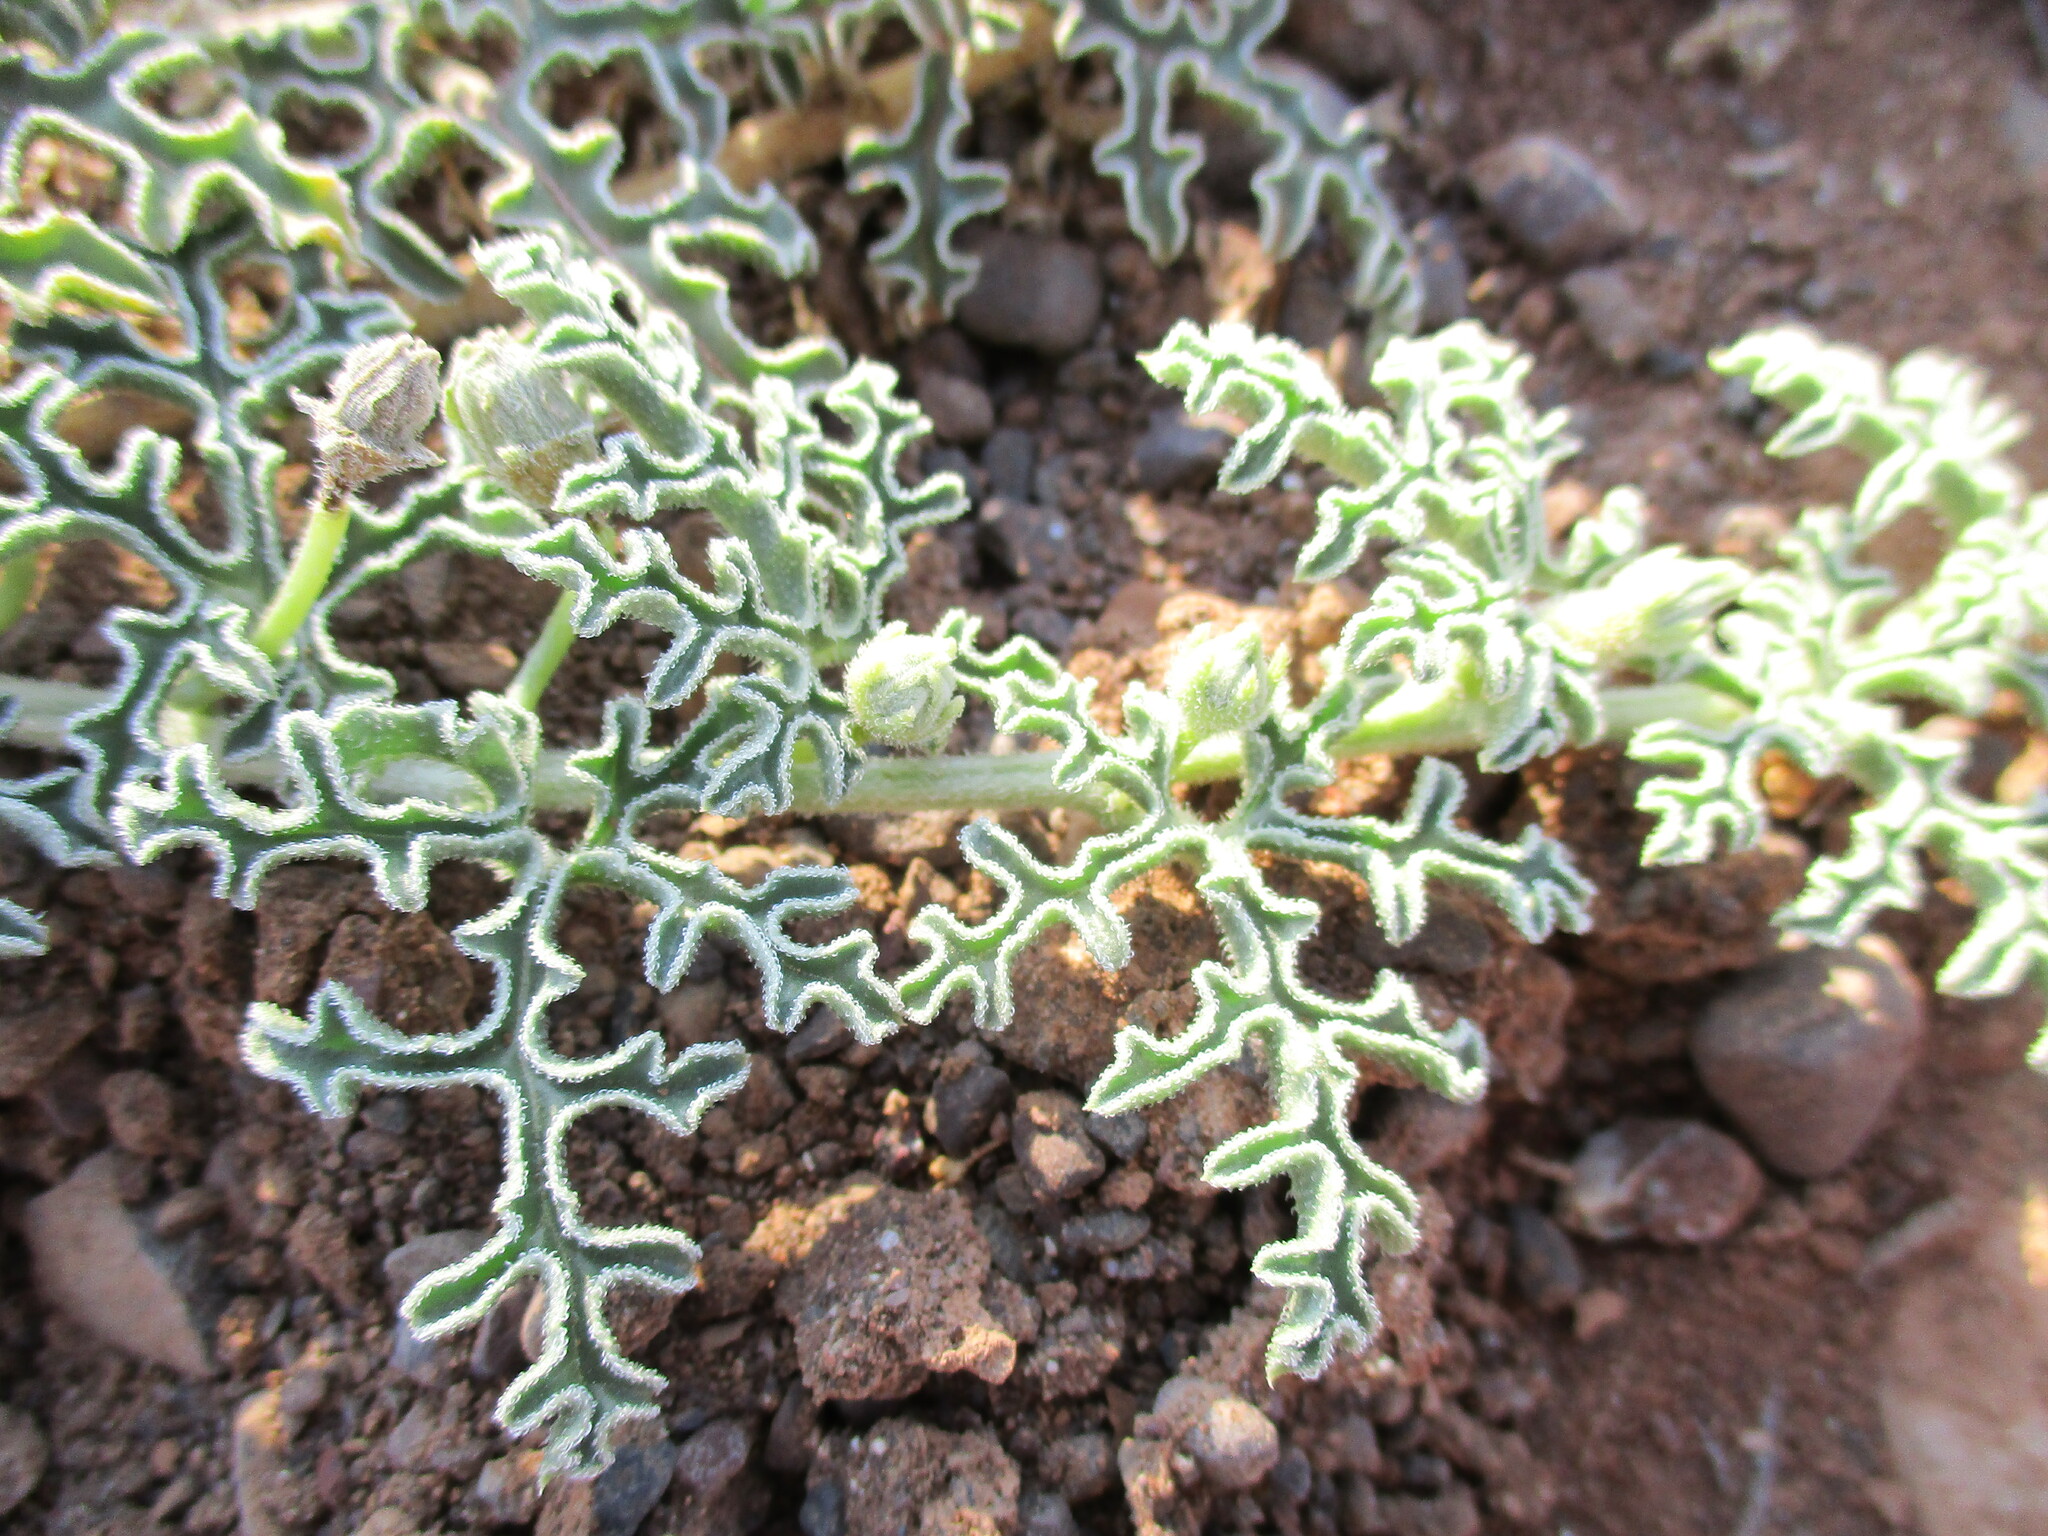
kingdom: Plantae
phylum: Tracheophyta
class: Magnoliopsida
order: Cucurbitales
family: Cucurbitaceae
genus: Citrullus
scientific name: Citrullus ecirrhosus
